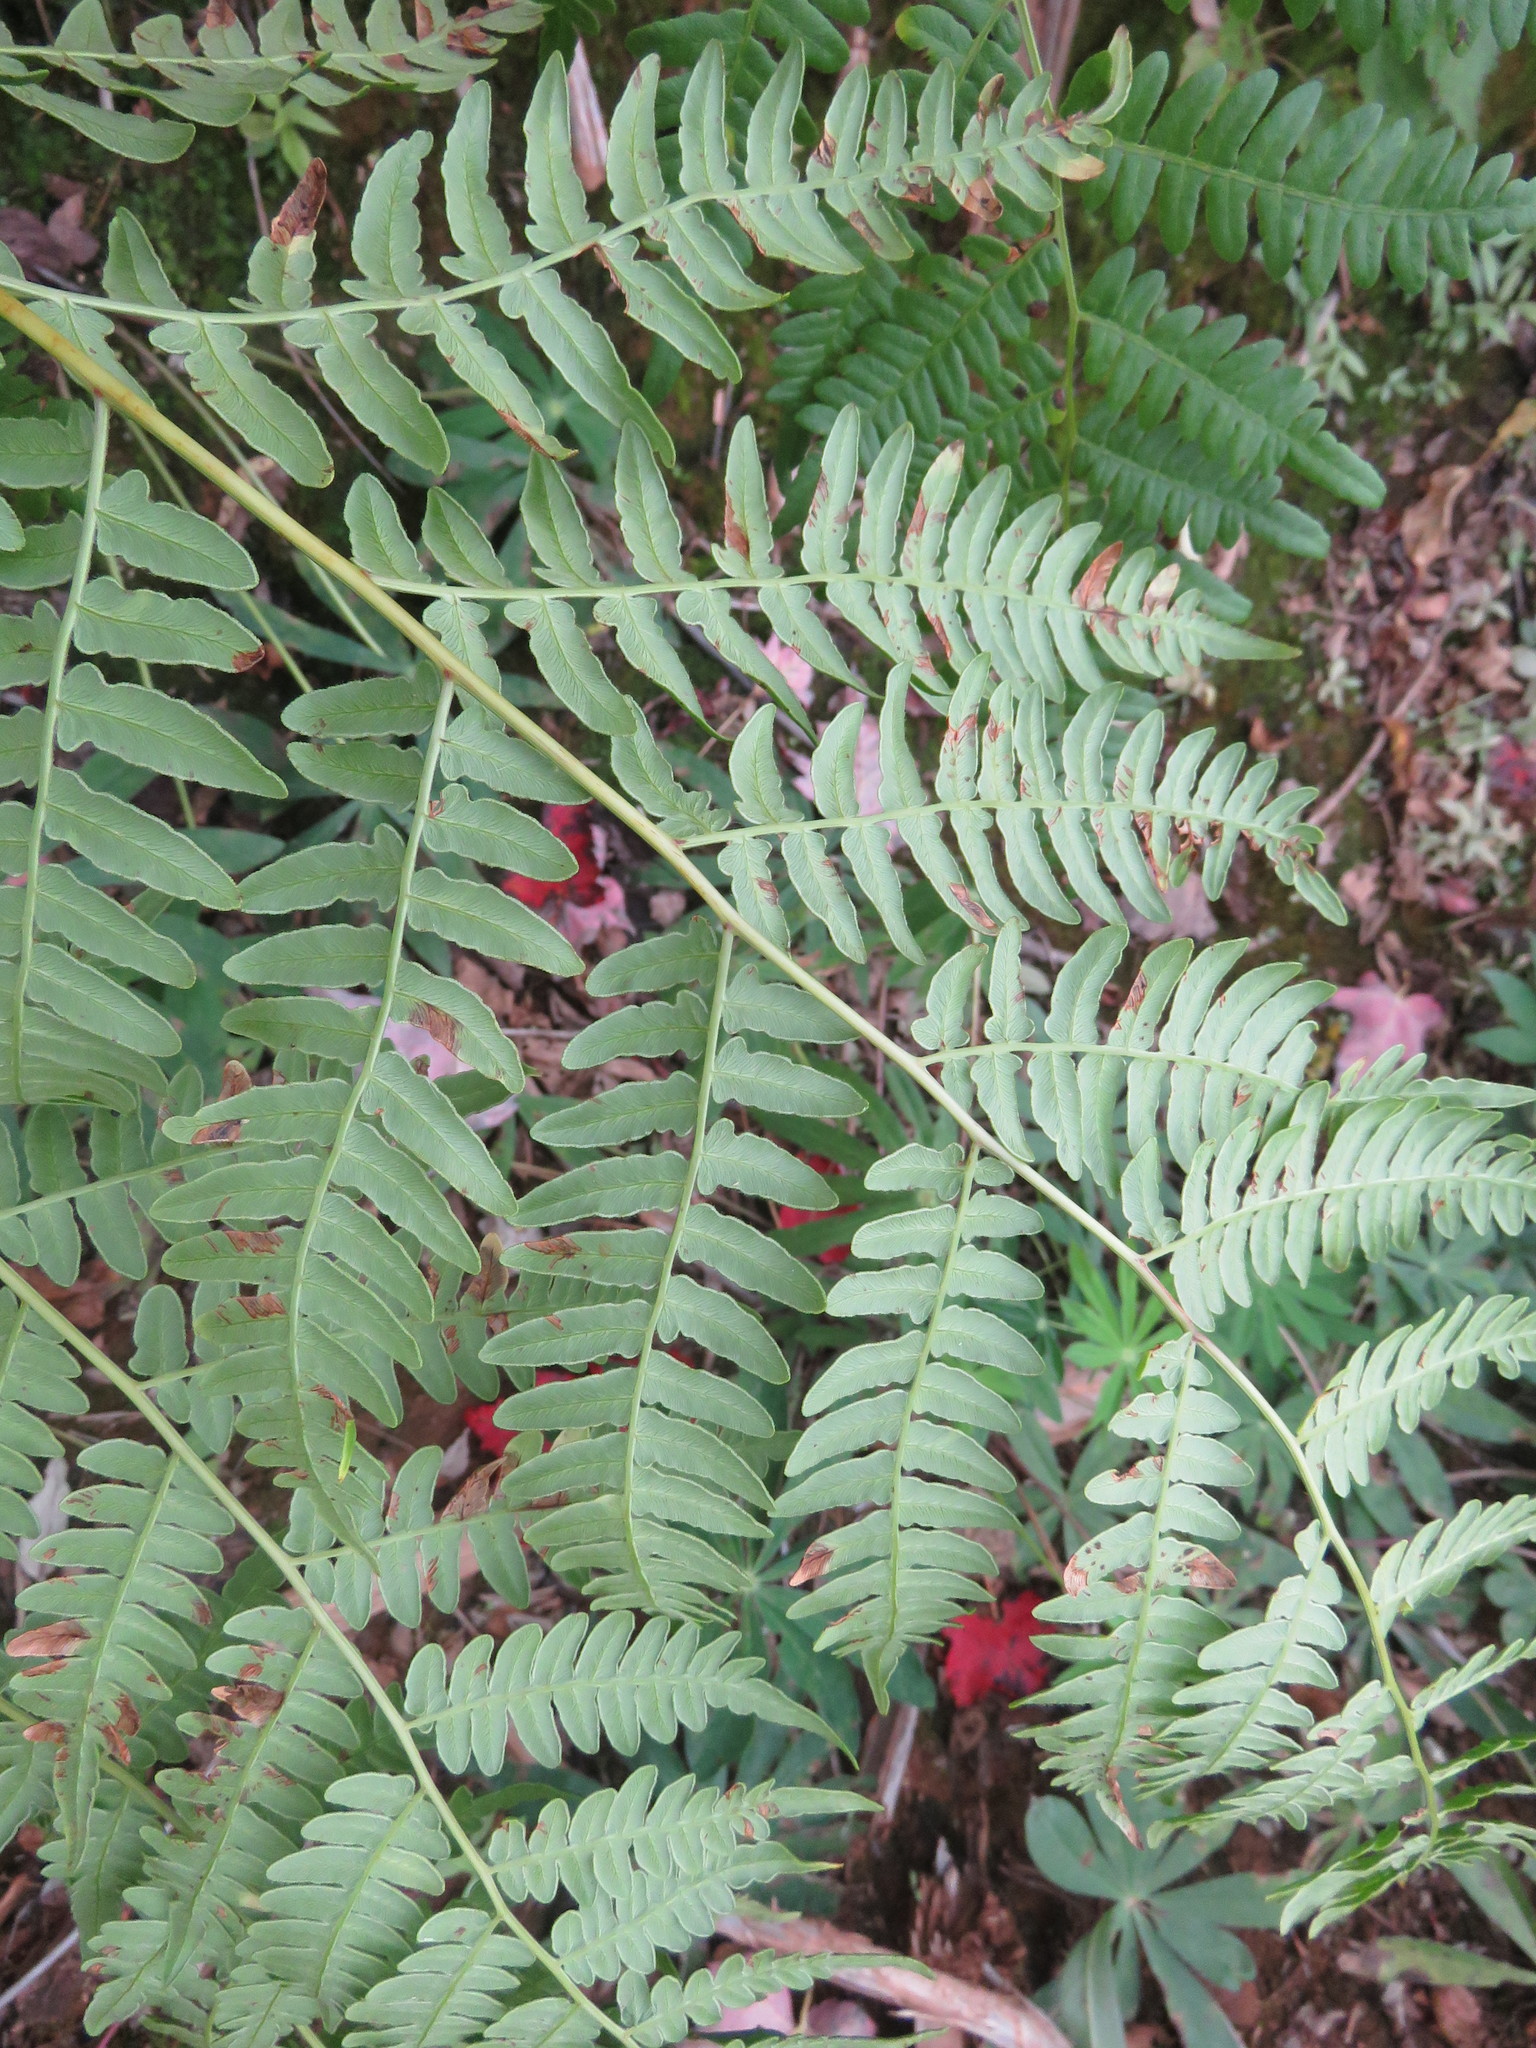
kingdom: Plantae
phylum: Tracheophyta
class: Polypodiopsida
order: Polypodiales
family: Dennstaedtiaceae
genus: Pteridium
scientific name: Pteridium aquilinum
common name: Bracken
